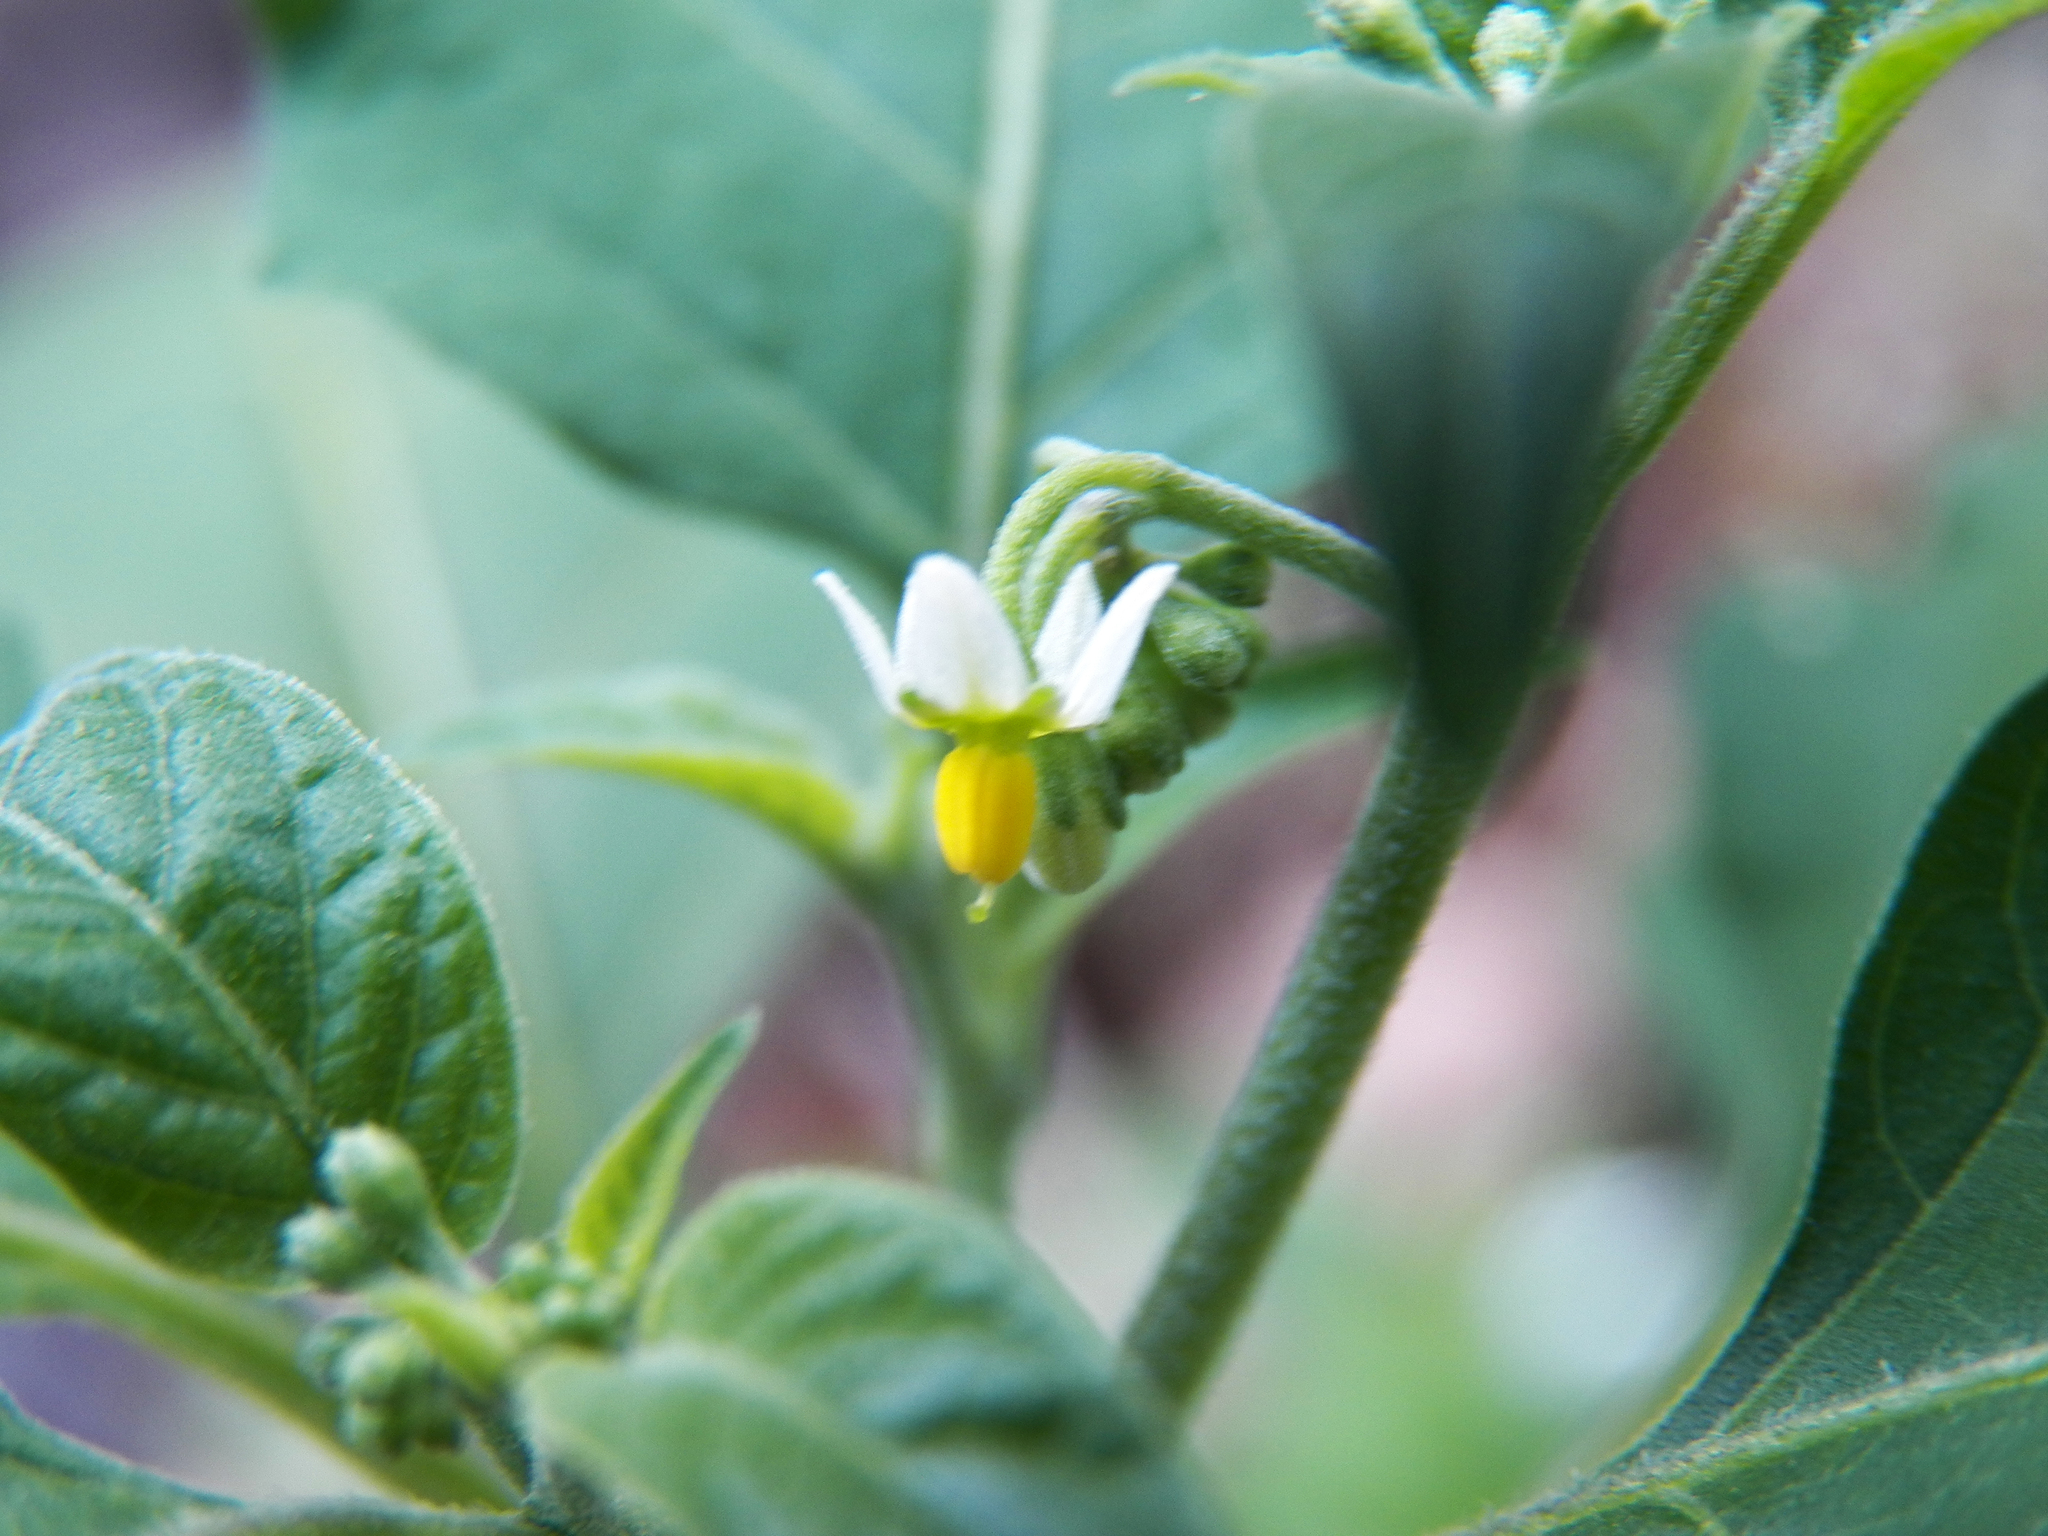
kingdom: Plantae
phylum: Tracheophyta
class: Magnoliopsida
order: Solanales
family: Solanaceae
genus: Solanum
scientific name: Solanum americanum
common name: American black nightshade
